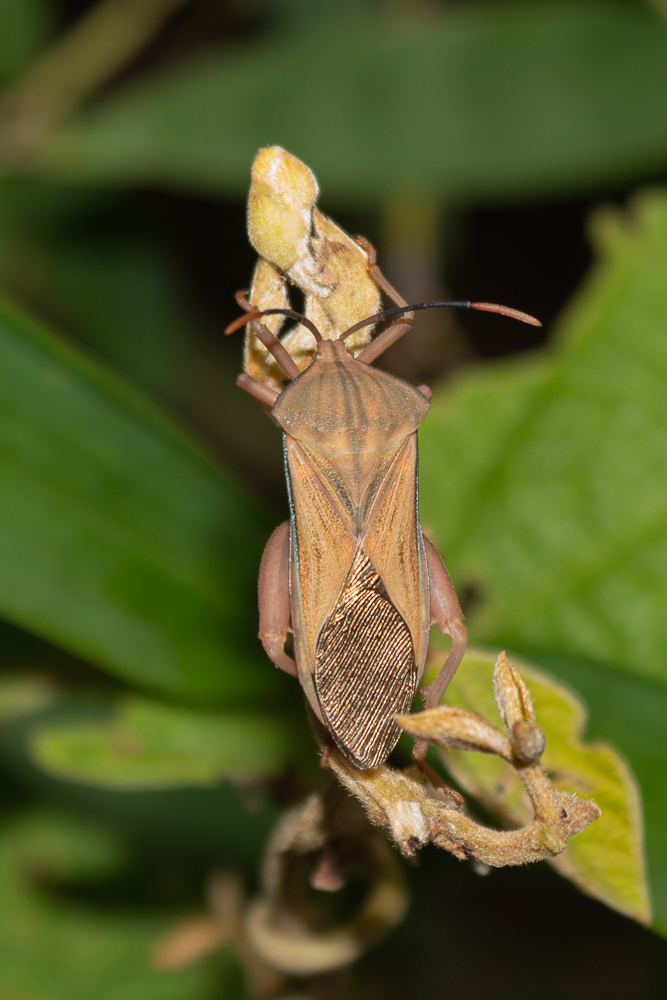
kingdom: Animalia
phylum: Arthropoda
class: Insecta
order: Hemiptera
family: Coreidae
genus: Cnemyrtus
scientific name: Cnemyrtus scriptus
